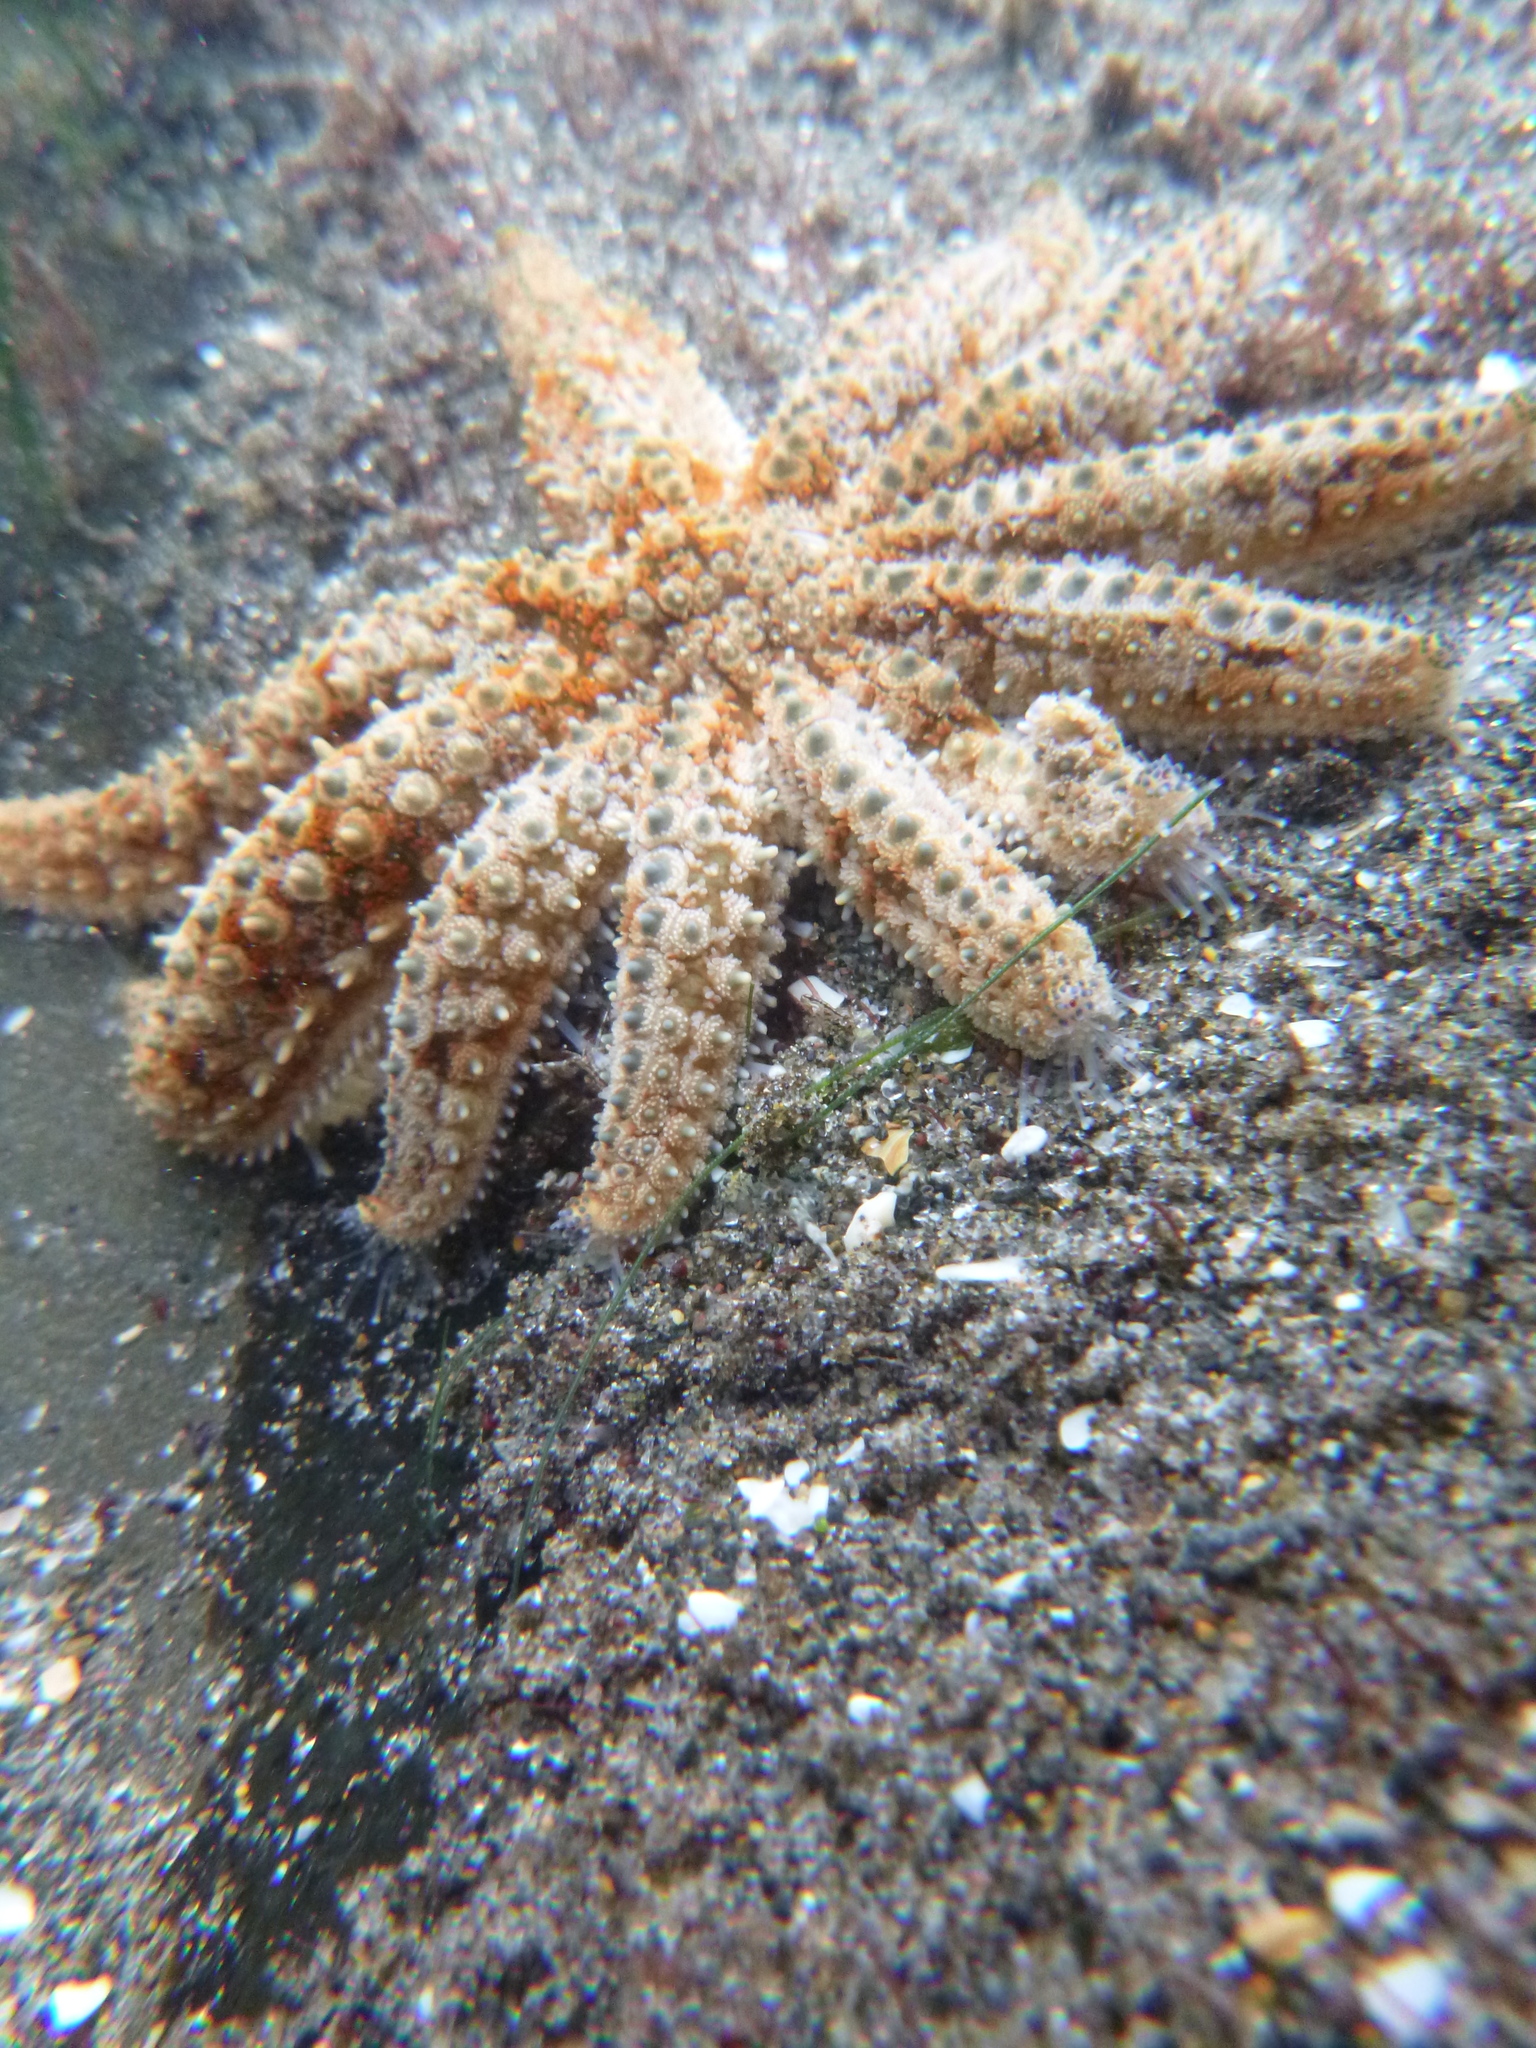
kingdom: Animalia
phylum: Echinodermata
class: Asteroidea
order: Forcipulatida
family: Asteriidae
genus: Coscinasterias
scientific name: Coscinasterias muricata
